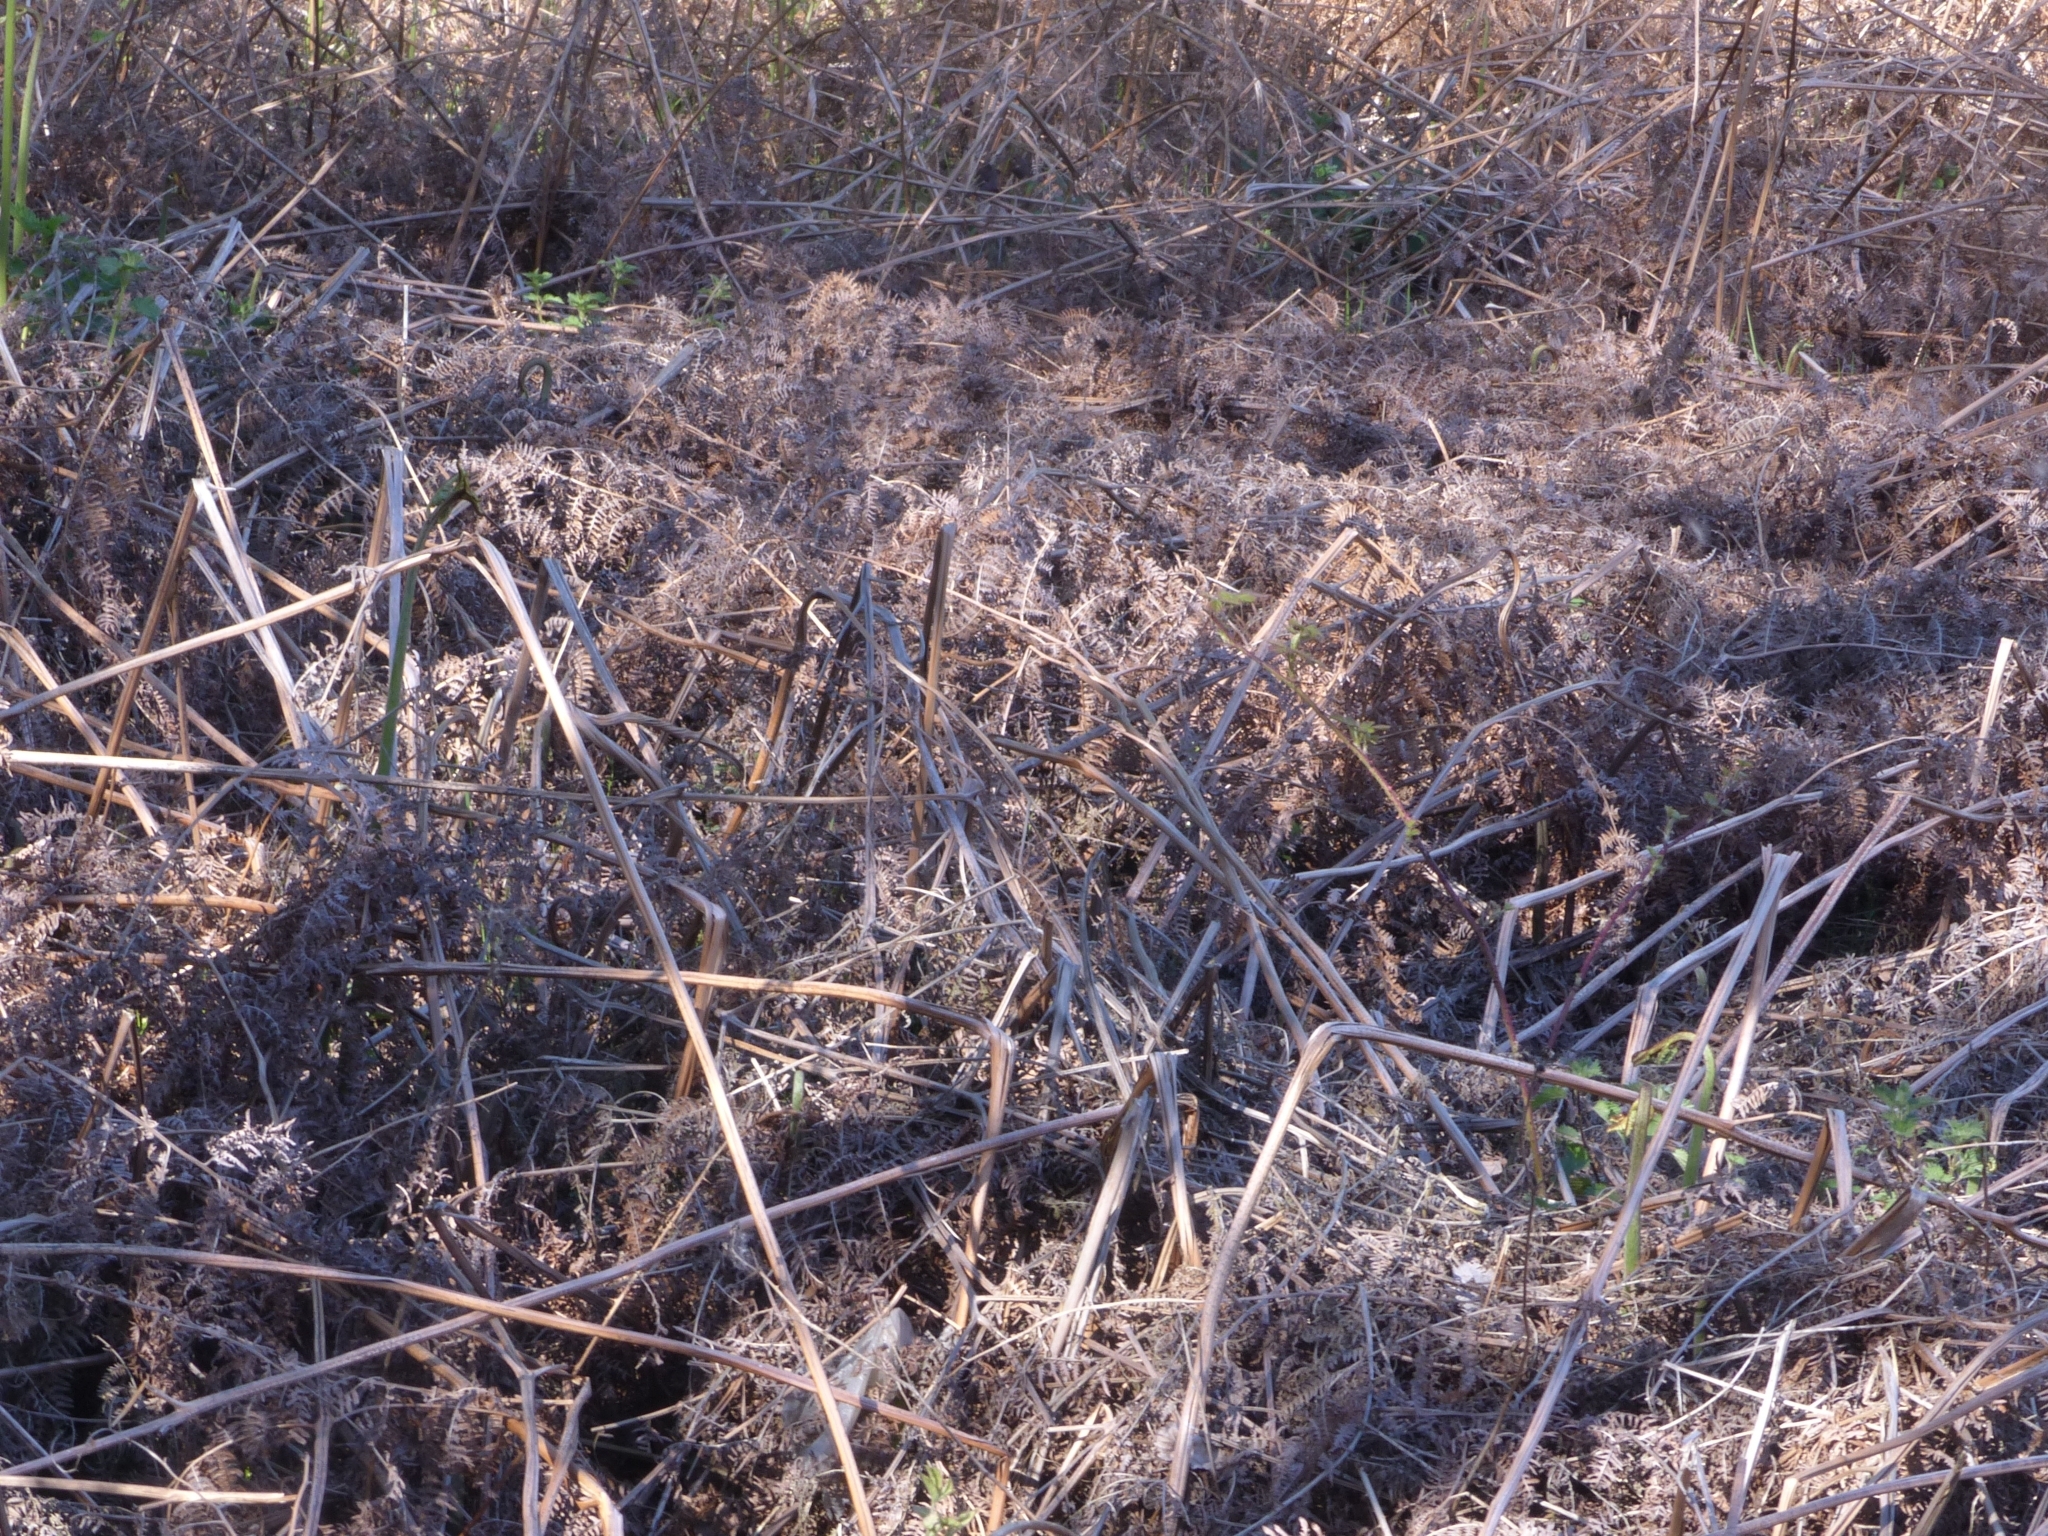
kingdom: Plantae
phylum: Tracheophyta
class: Polypodiopsida
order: Polypodiales
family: Dennstaedtiaceae
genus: Pteridium
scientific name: Pteridium aquilinum
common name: Bracken
